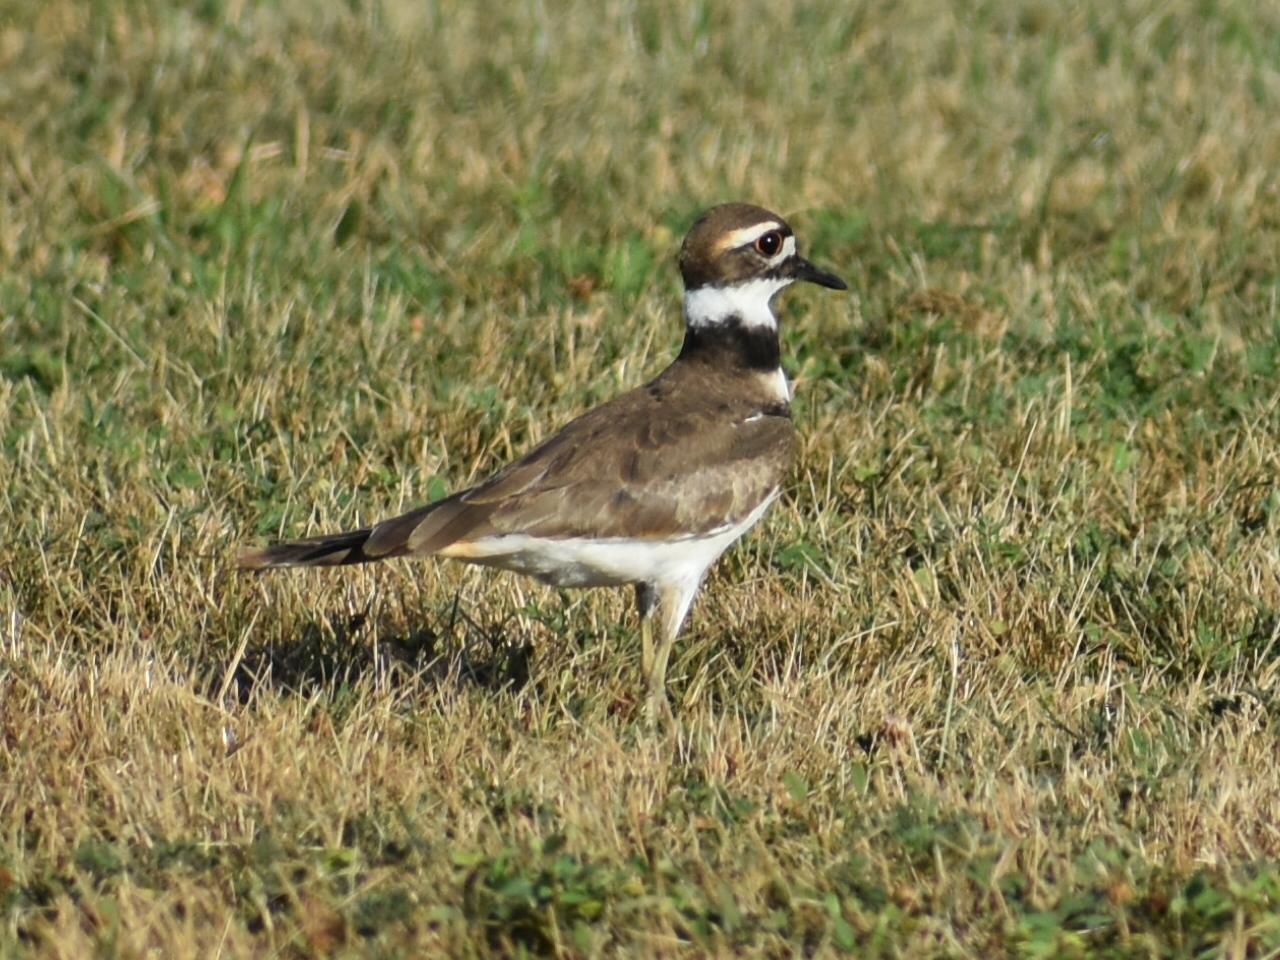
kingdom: Animalia
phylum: Chordata
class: Aves
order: Charadriiformes
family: Charadriidae
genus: Charadrius
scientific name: Charadrius vociferus
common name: Killdeer
